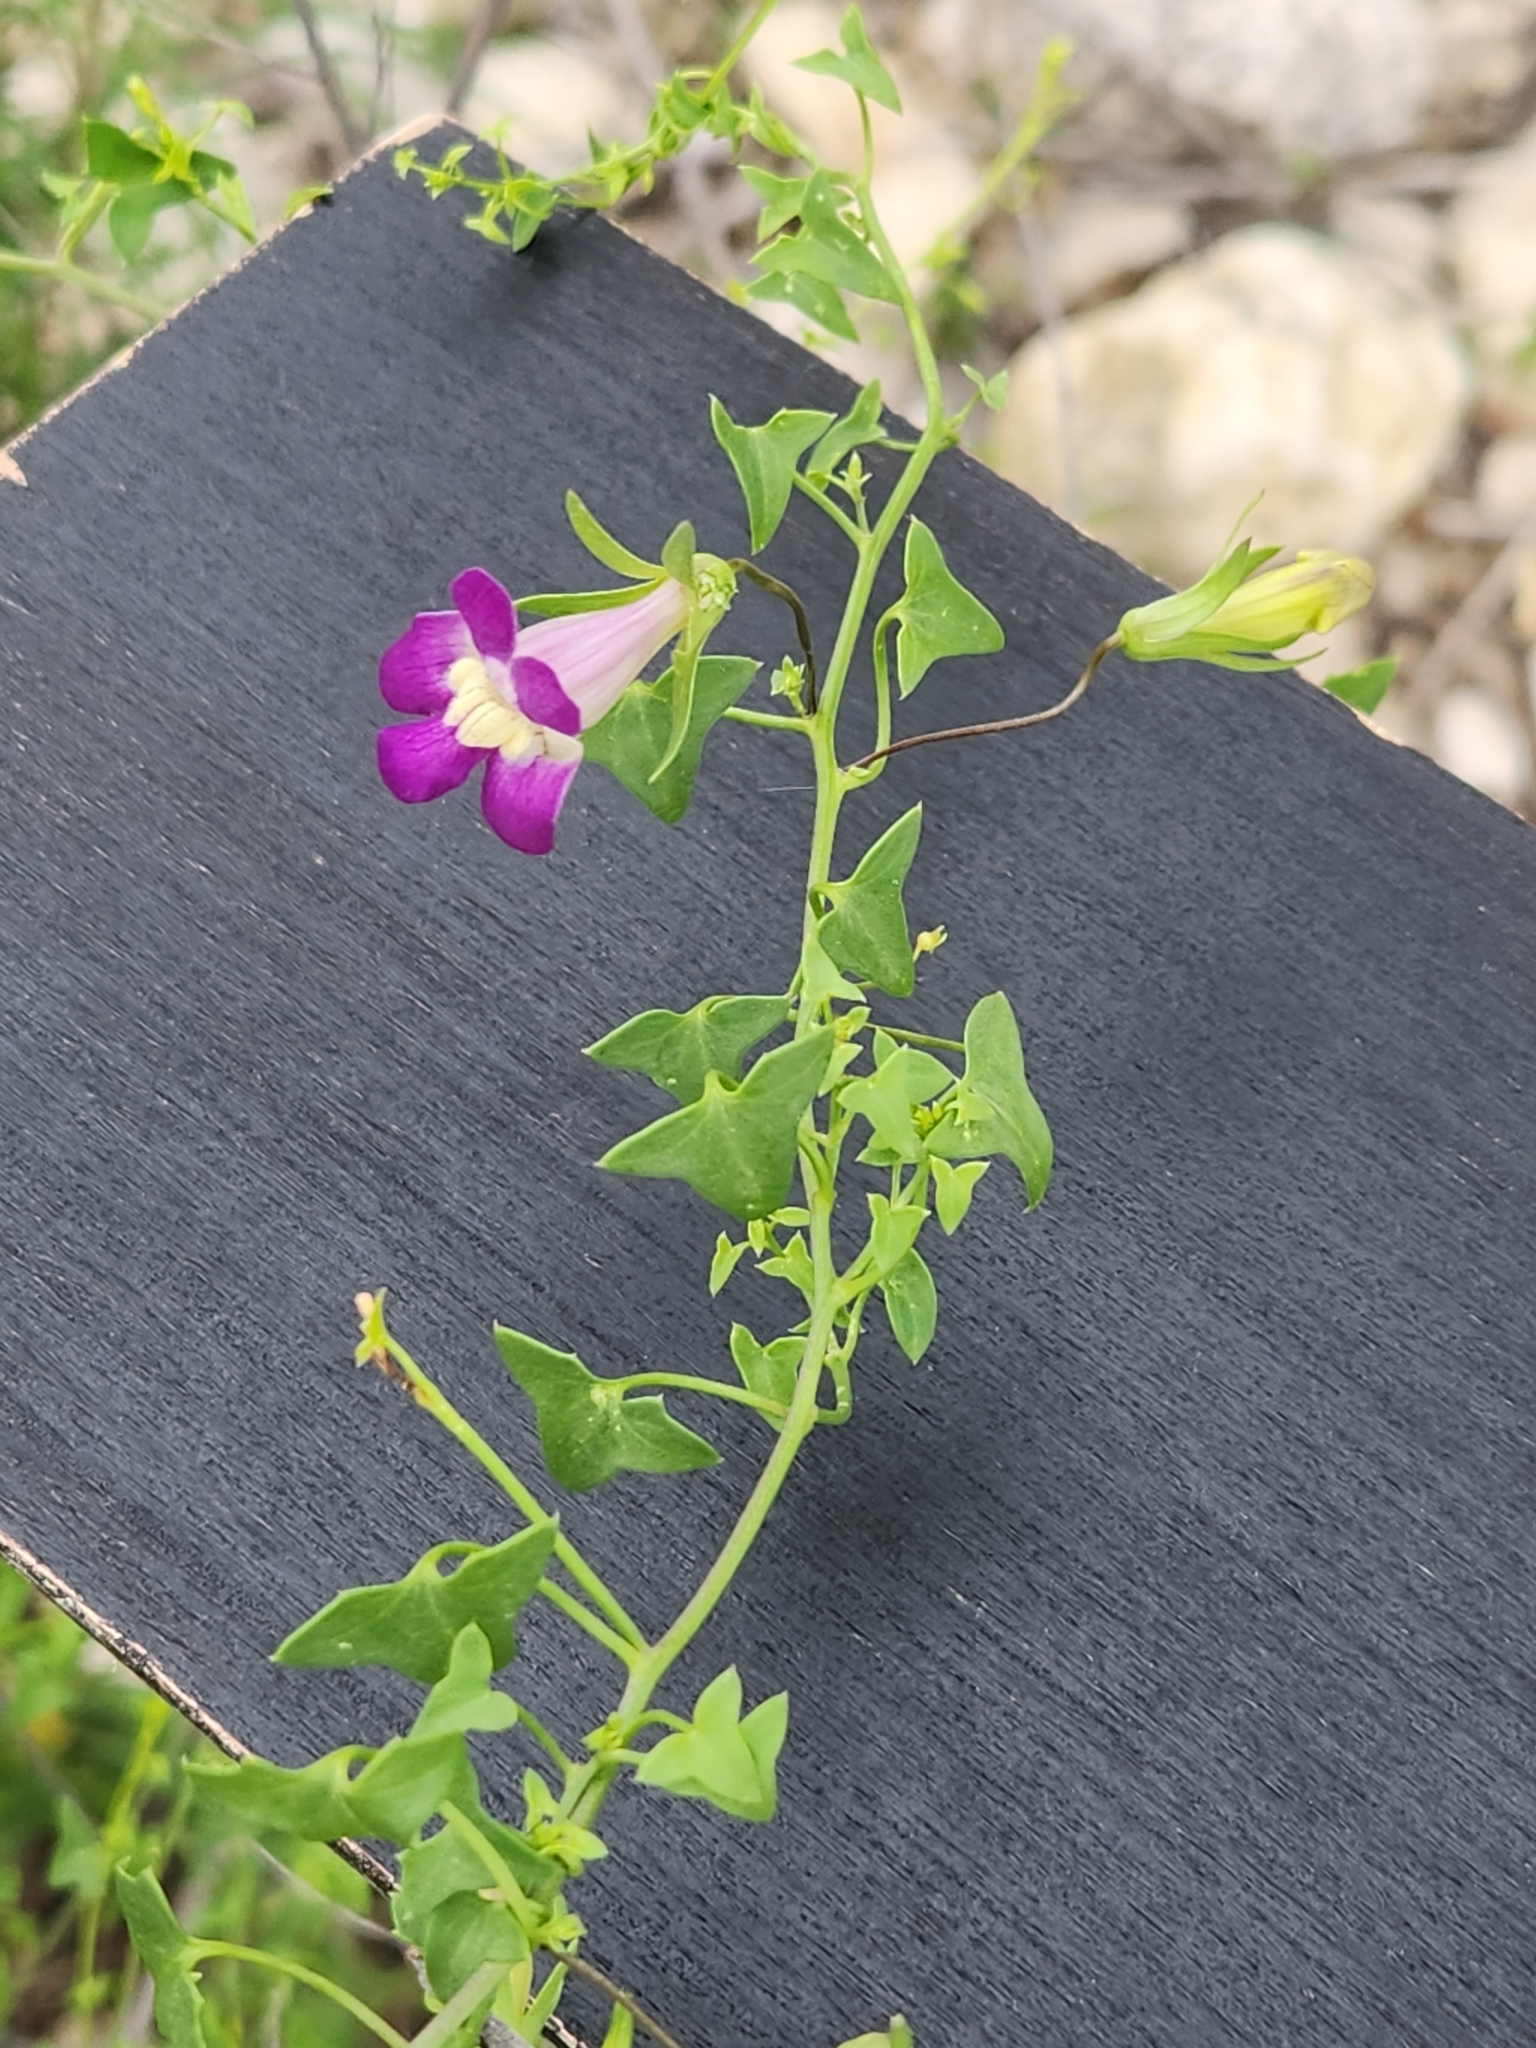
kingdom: Plantae
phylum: Tracheophyta
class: Magnoliopsida
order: Lamiales
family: Plantaginaceae
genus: Maurandella
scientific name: Maurandella antirrhiniflora
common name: Violet twining-snapdragon
